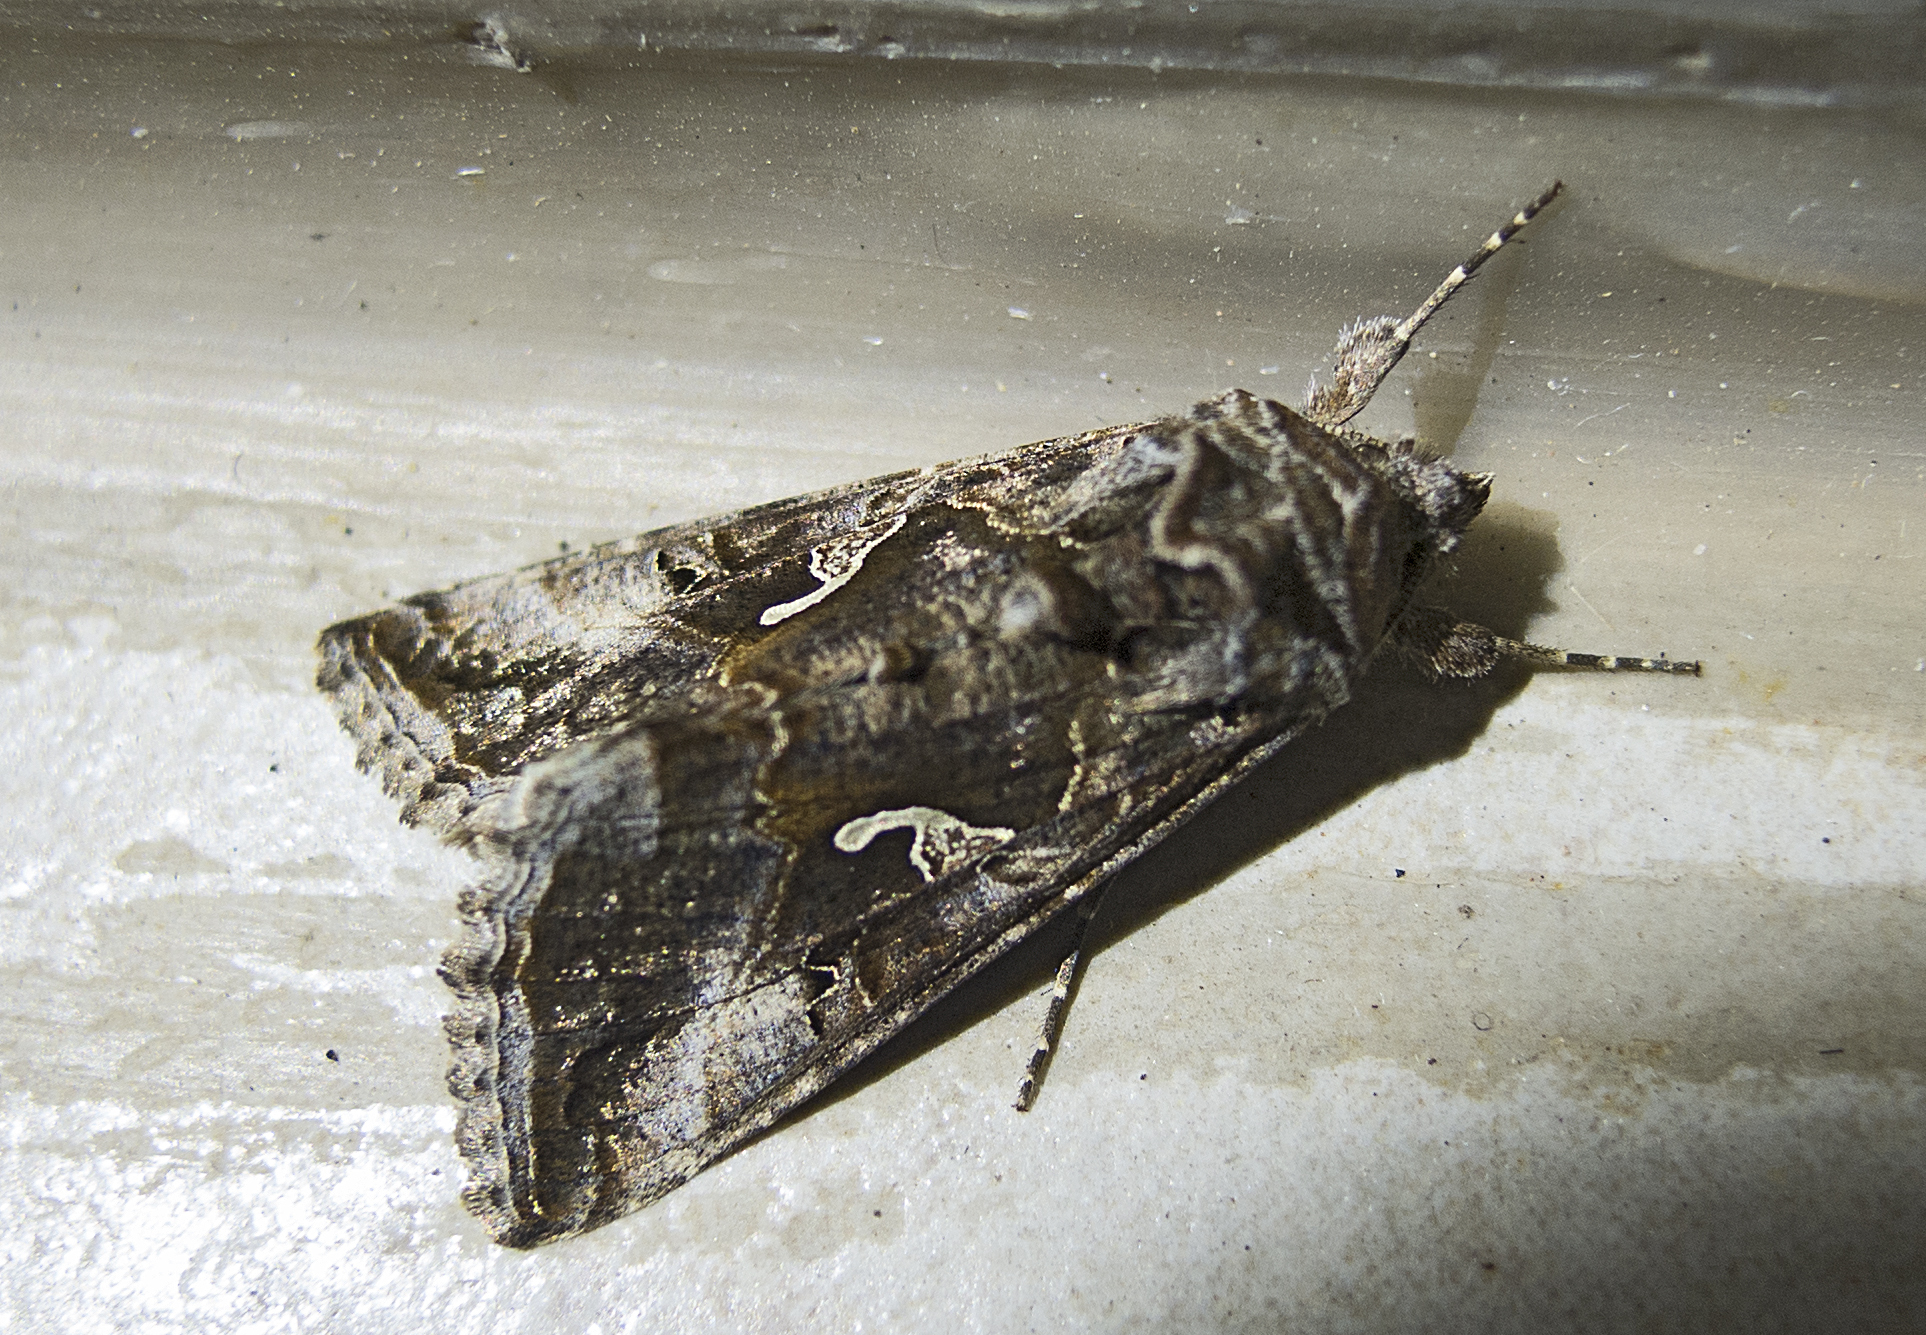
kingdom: Animalia
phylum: Arthropoda
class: Insecta
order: Lepidoptera
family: Noctuidae
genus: Autographa
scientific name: Autographa gamma
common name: Silver y
